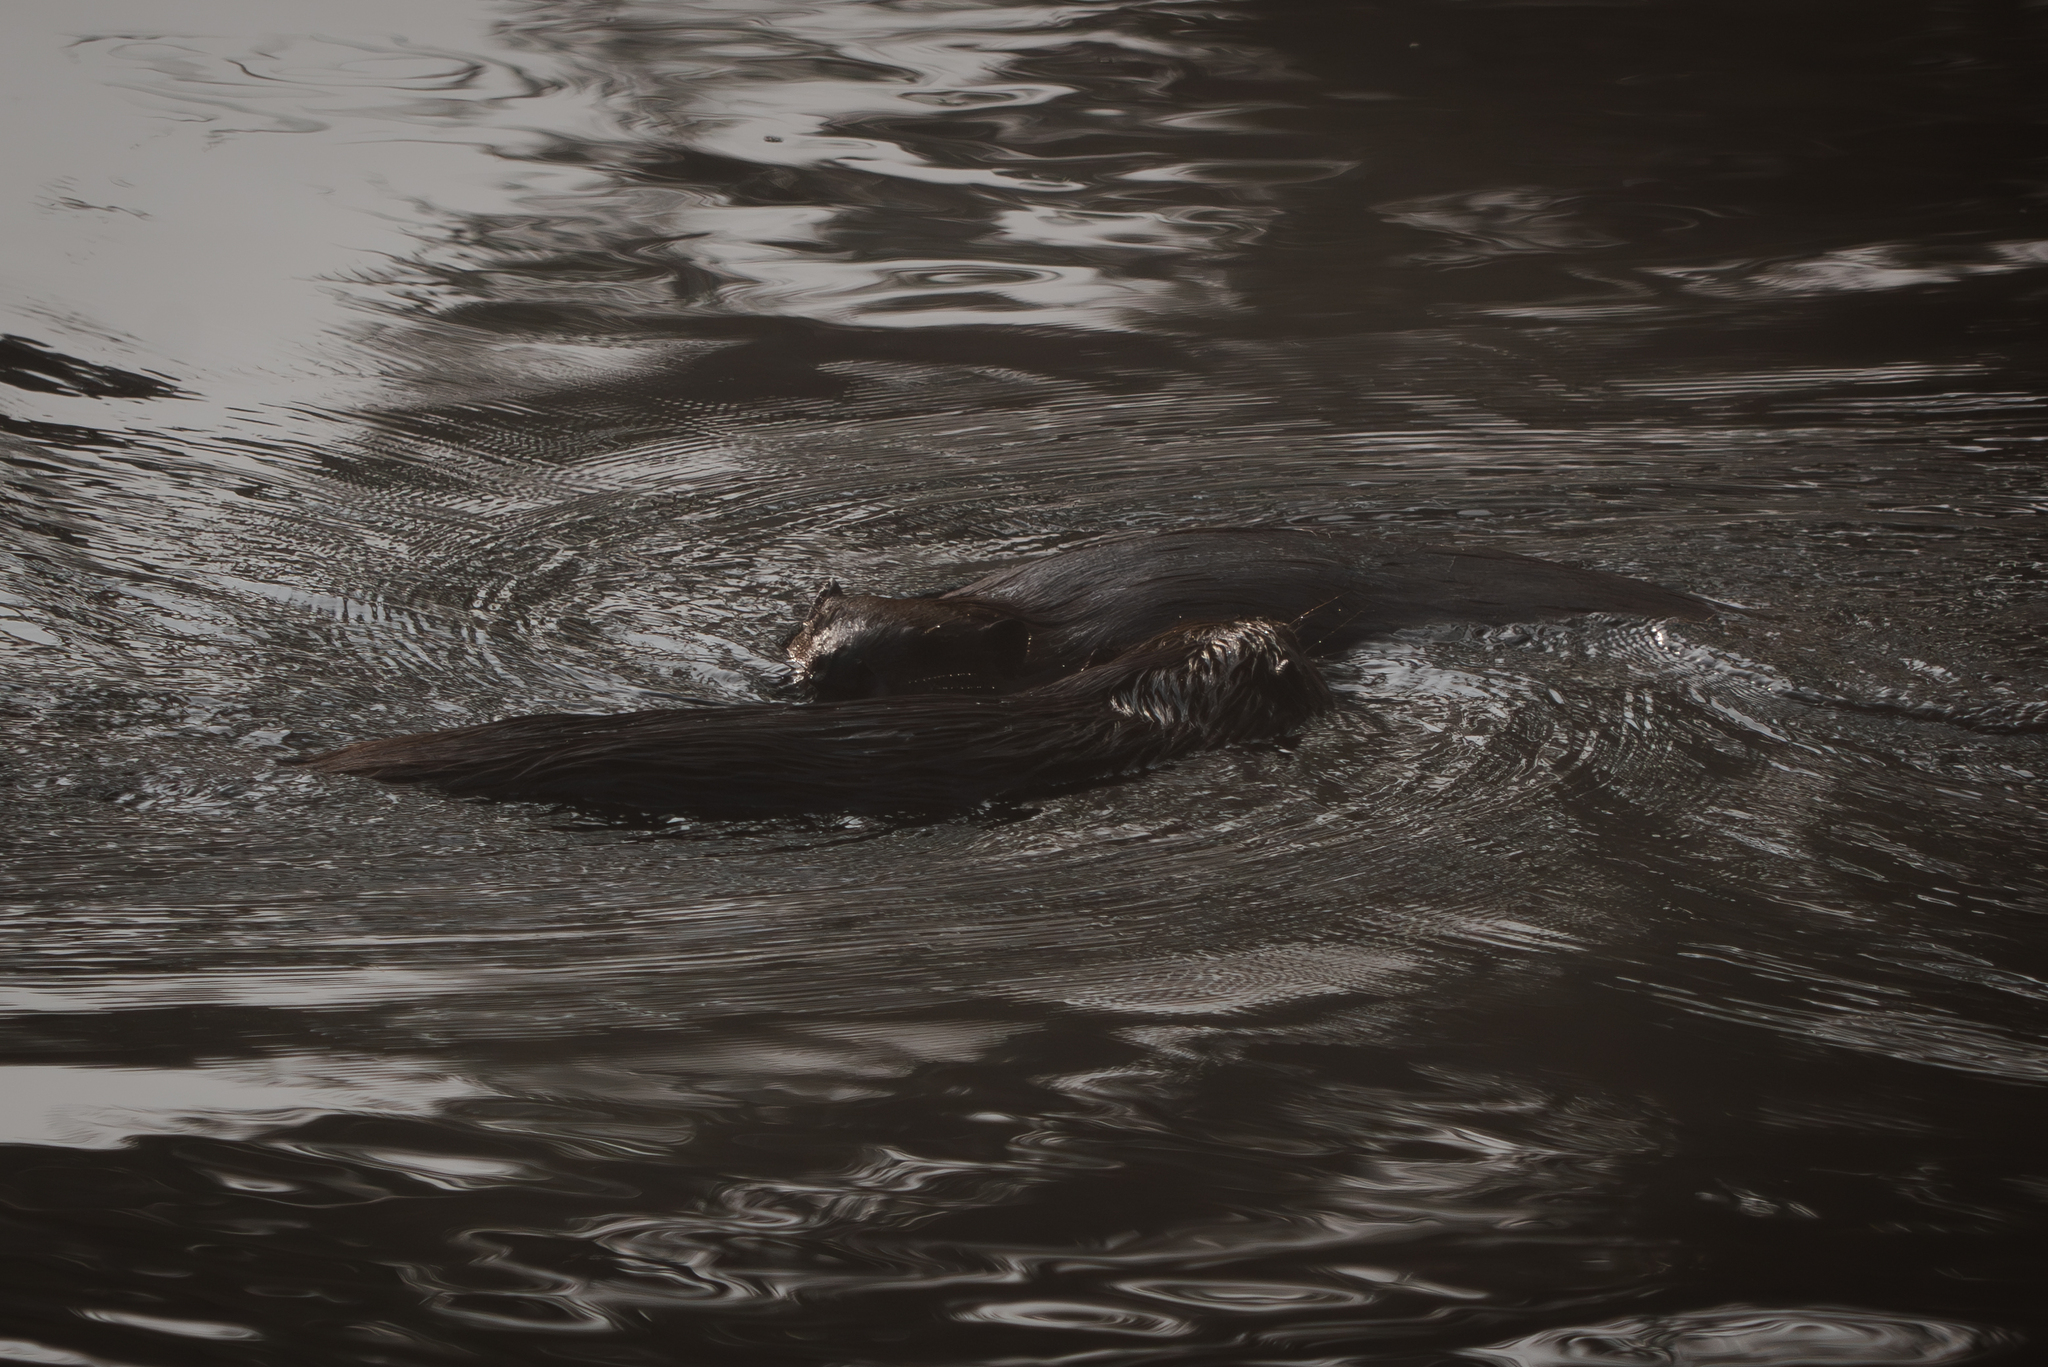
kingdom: Animalia
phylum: Chordata
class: Mammalia
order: Rodentia
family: Castoridae
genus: Castor
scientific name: Castor canadensis
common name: American beaver
